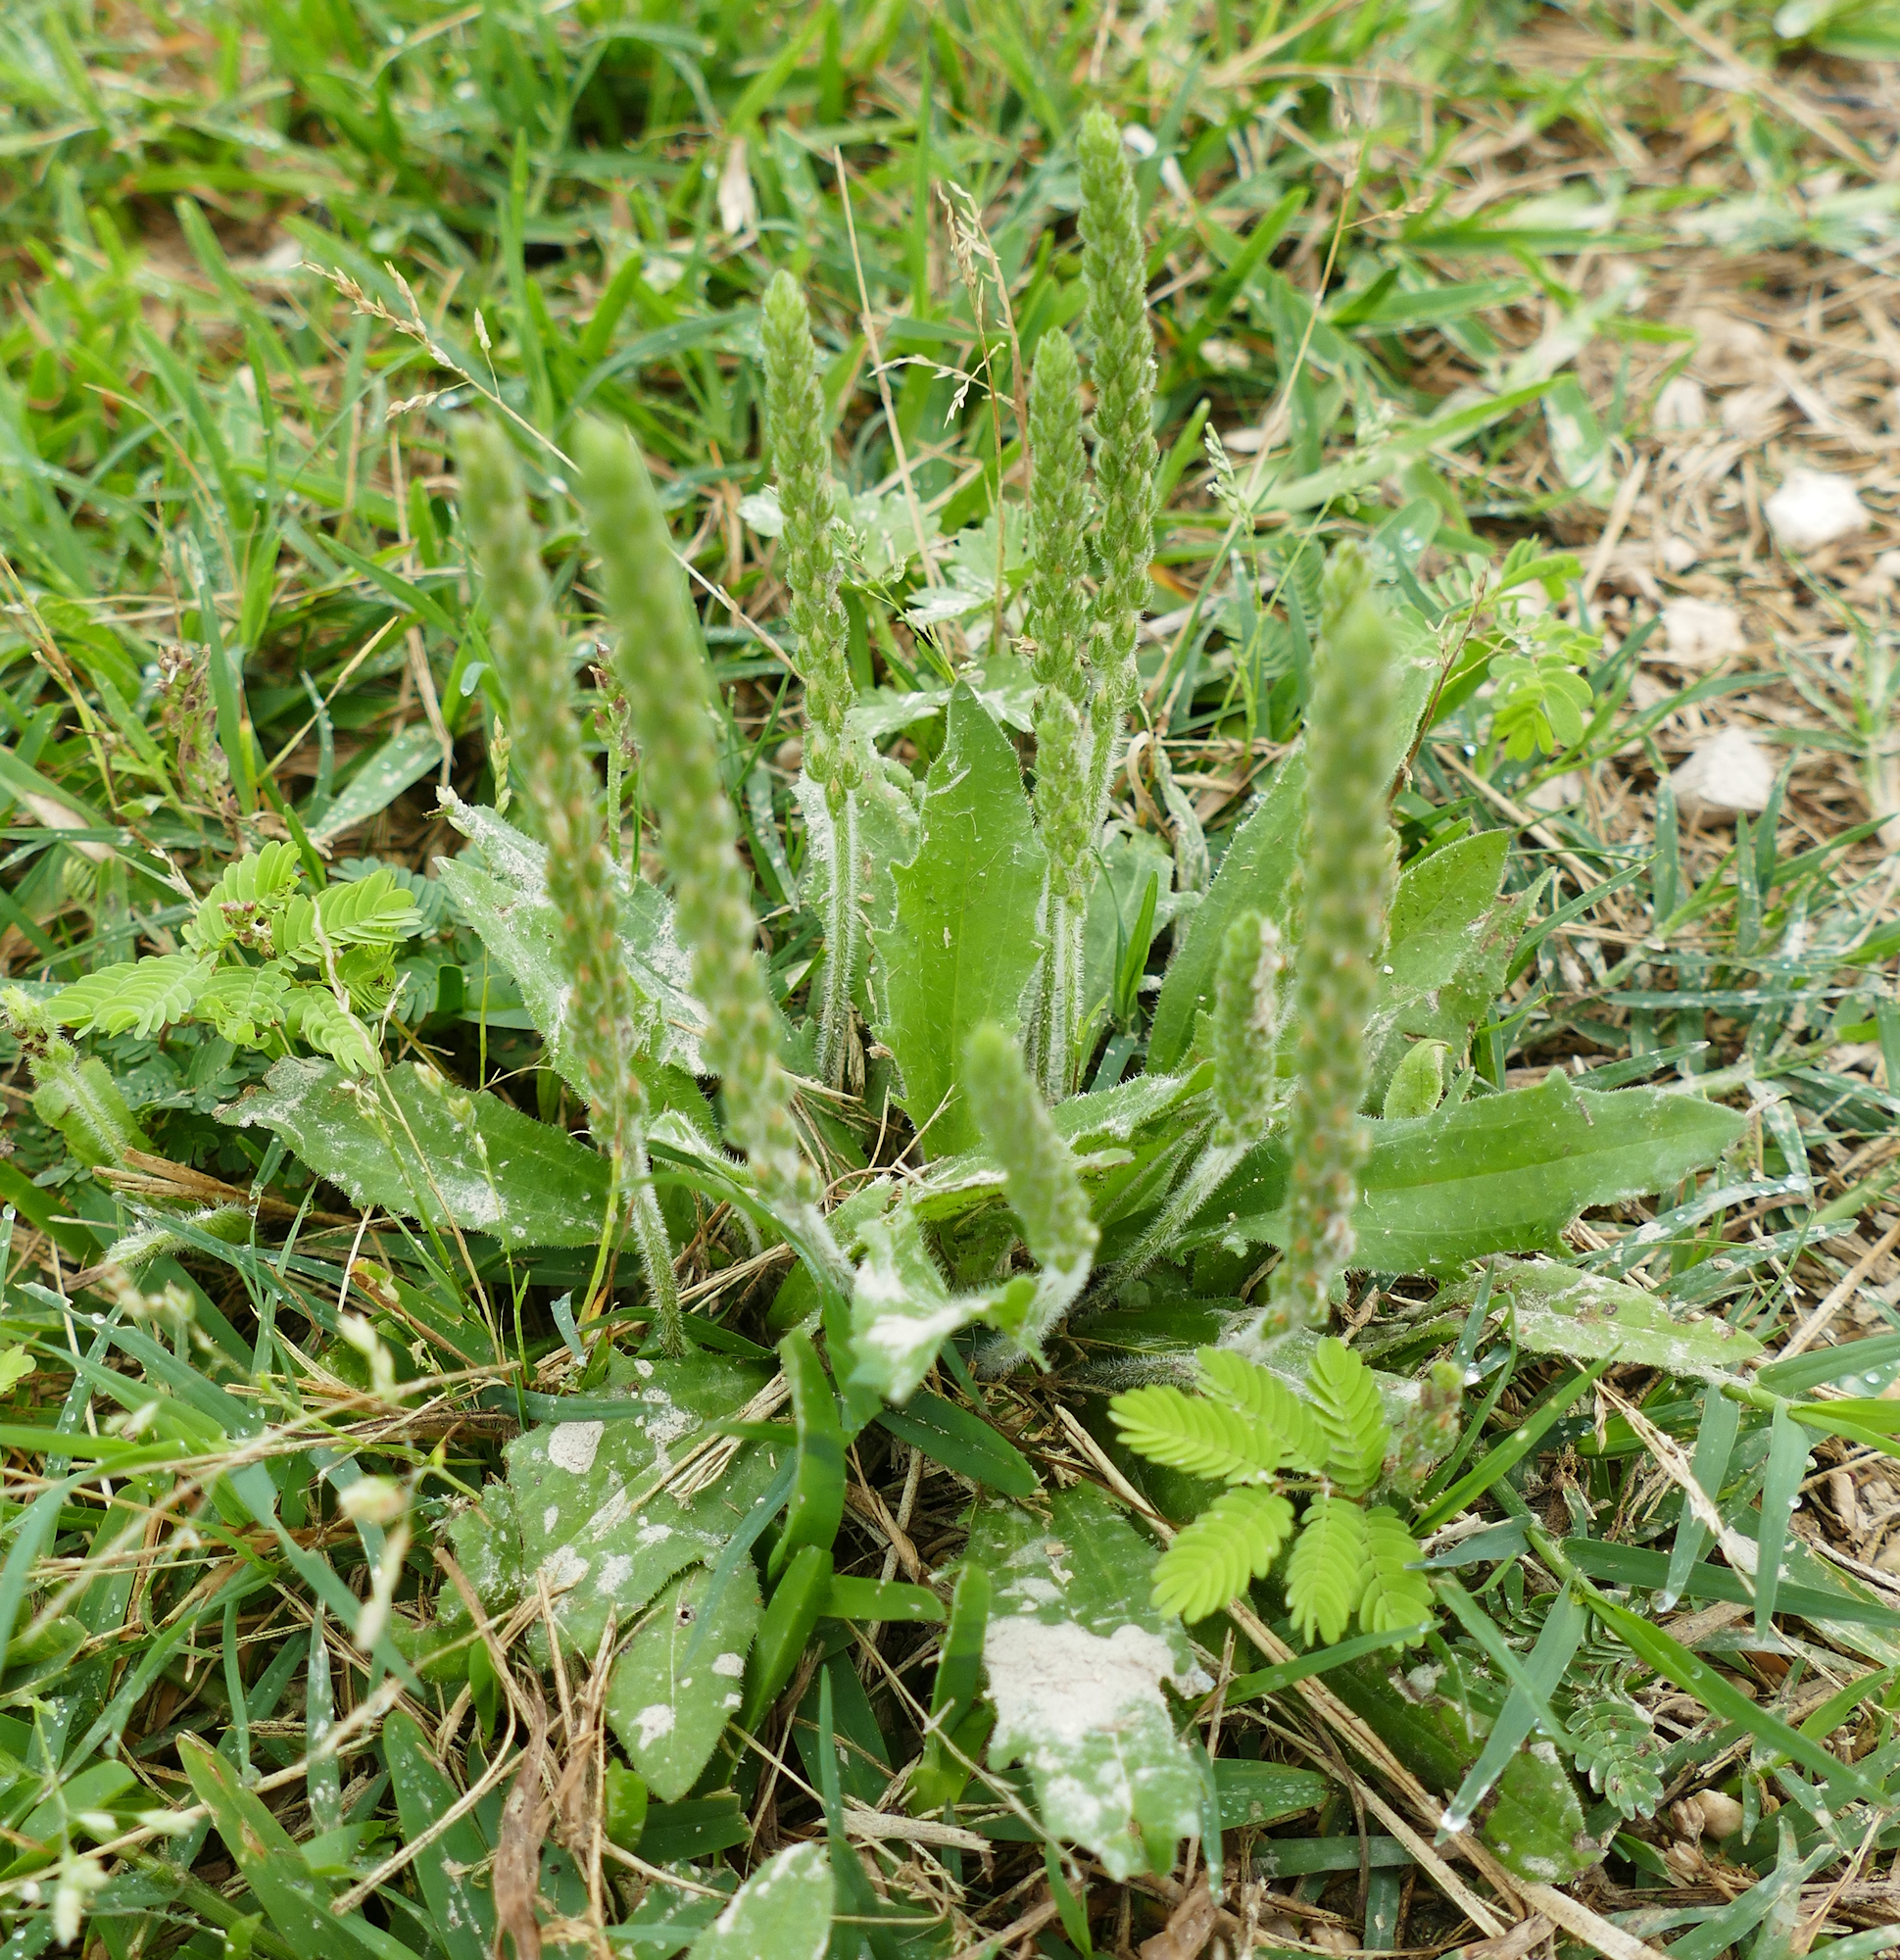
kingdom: Plantae
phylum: Tracheophyta
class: Magnoliopsida
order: Lamiales
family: Plantaginaceae
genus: Plantago
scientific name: Plantago rhodosperma
